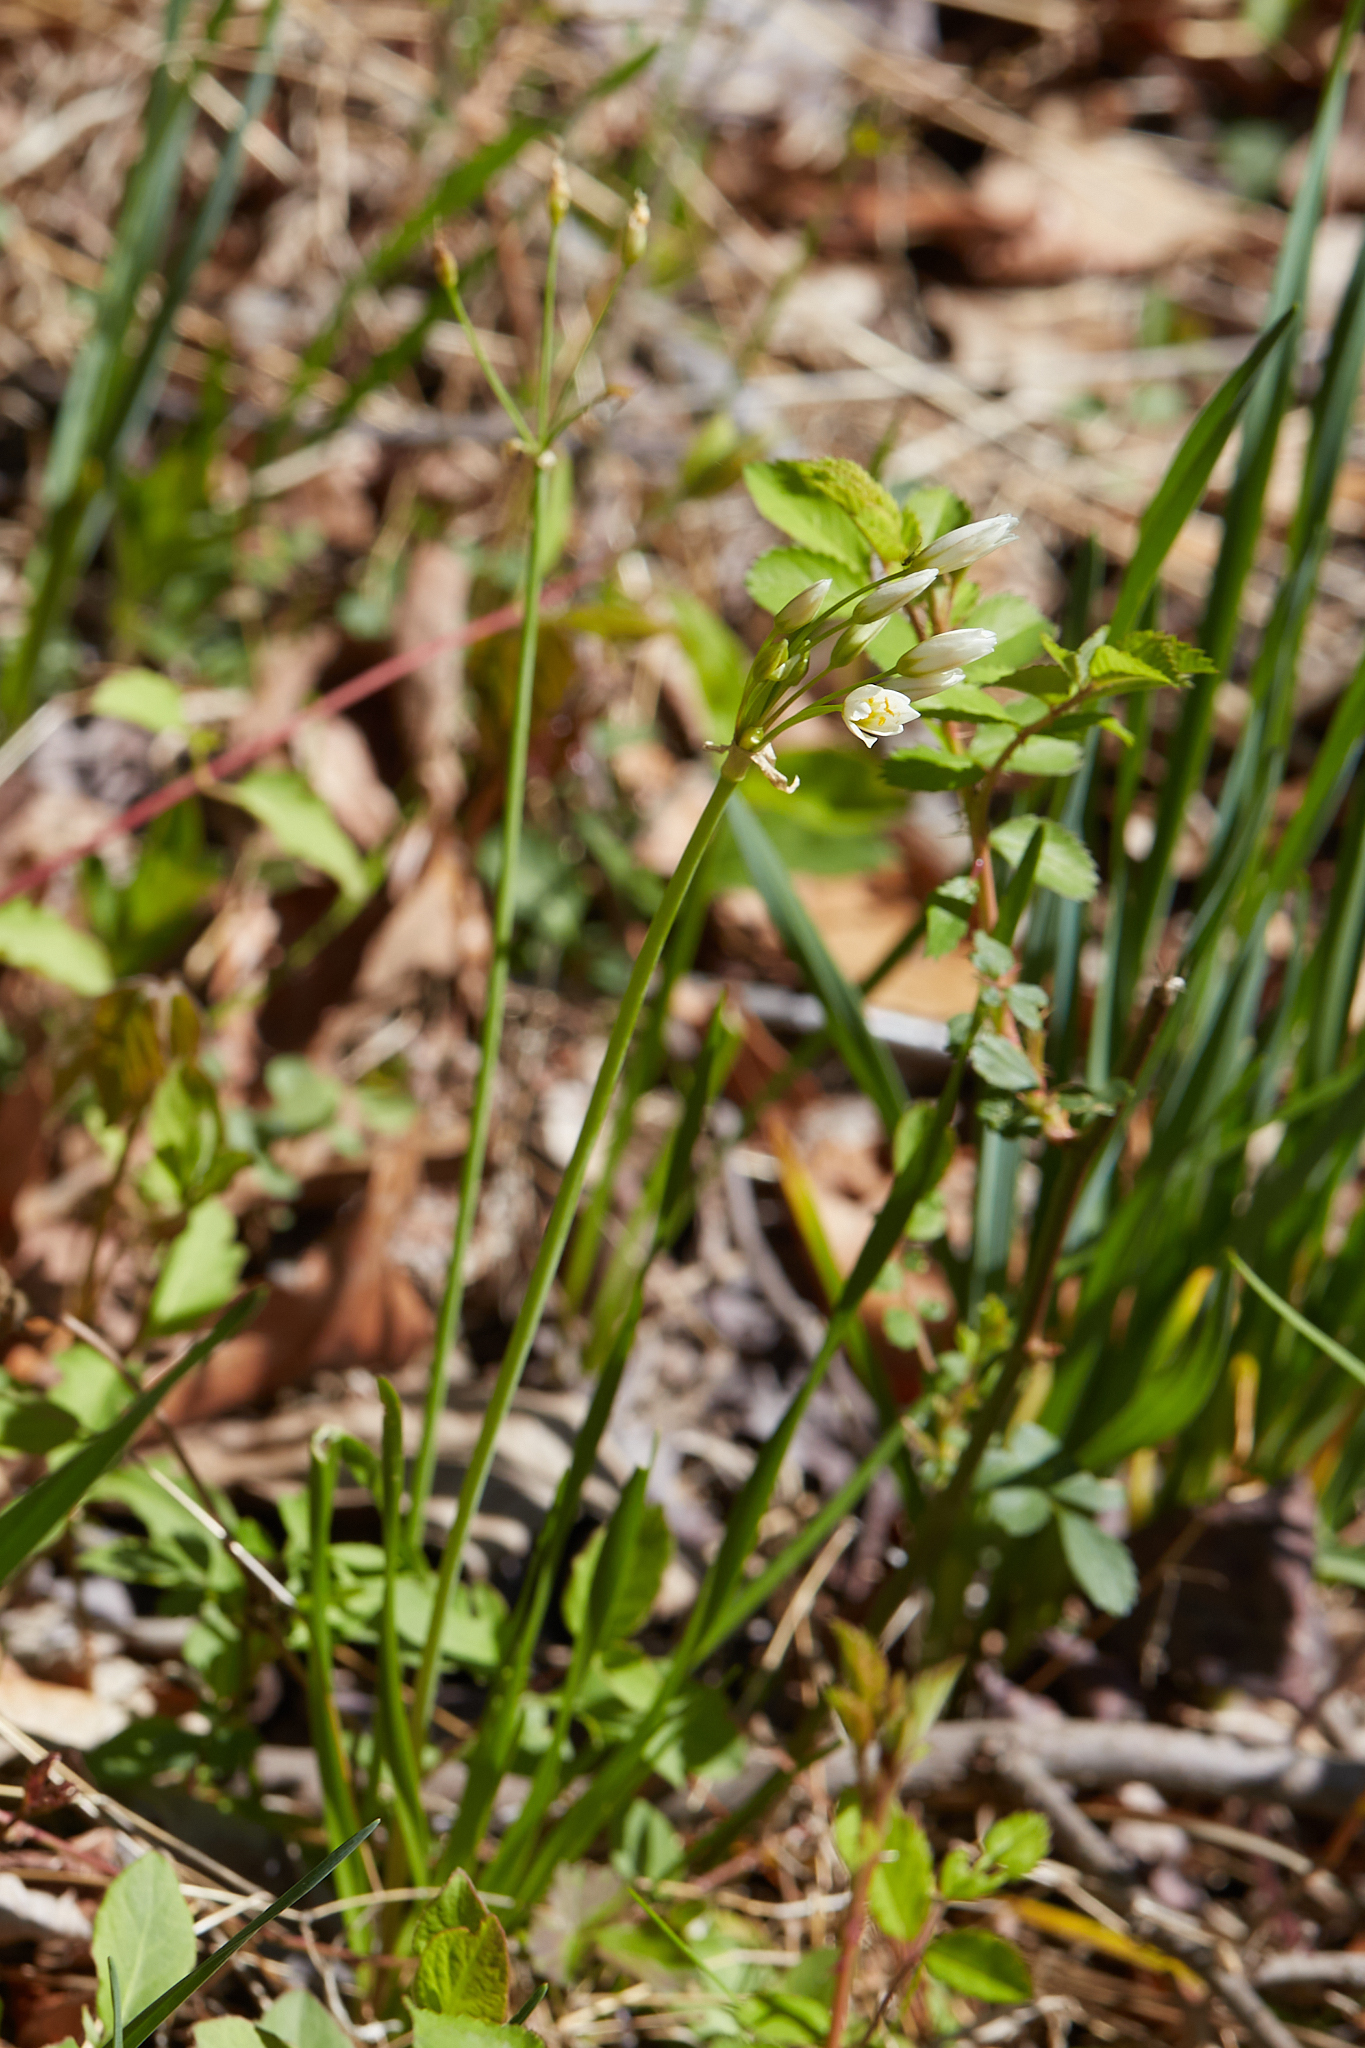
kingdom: Plantae
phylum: Tracheophyta
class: Liliopsida
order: Asparagales
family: Amaryllidaceae
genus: Nothoscordum
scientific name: Nothoscordum bivalve
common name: Crow-poison
